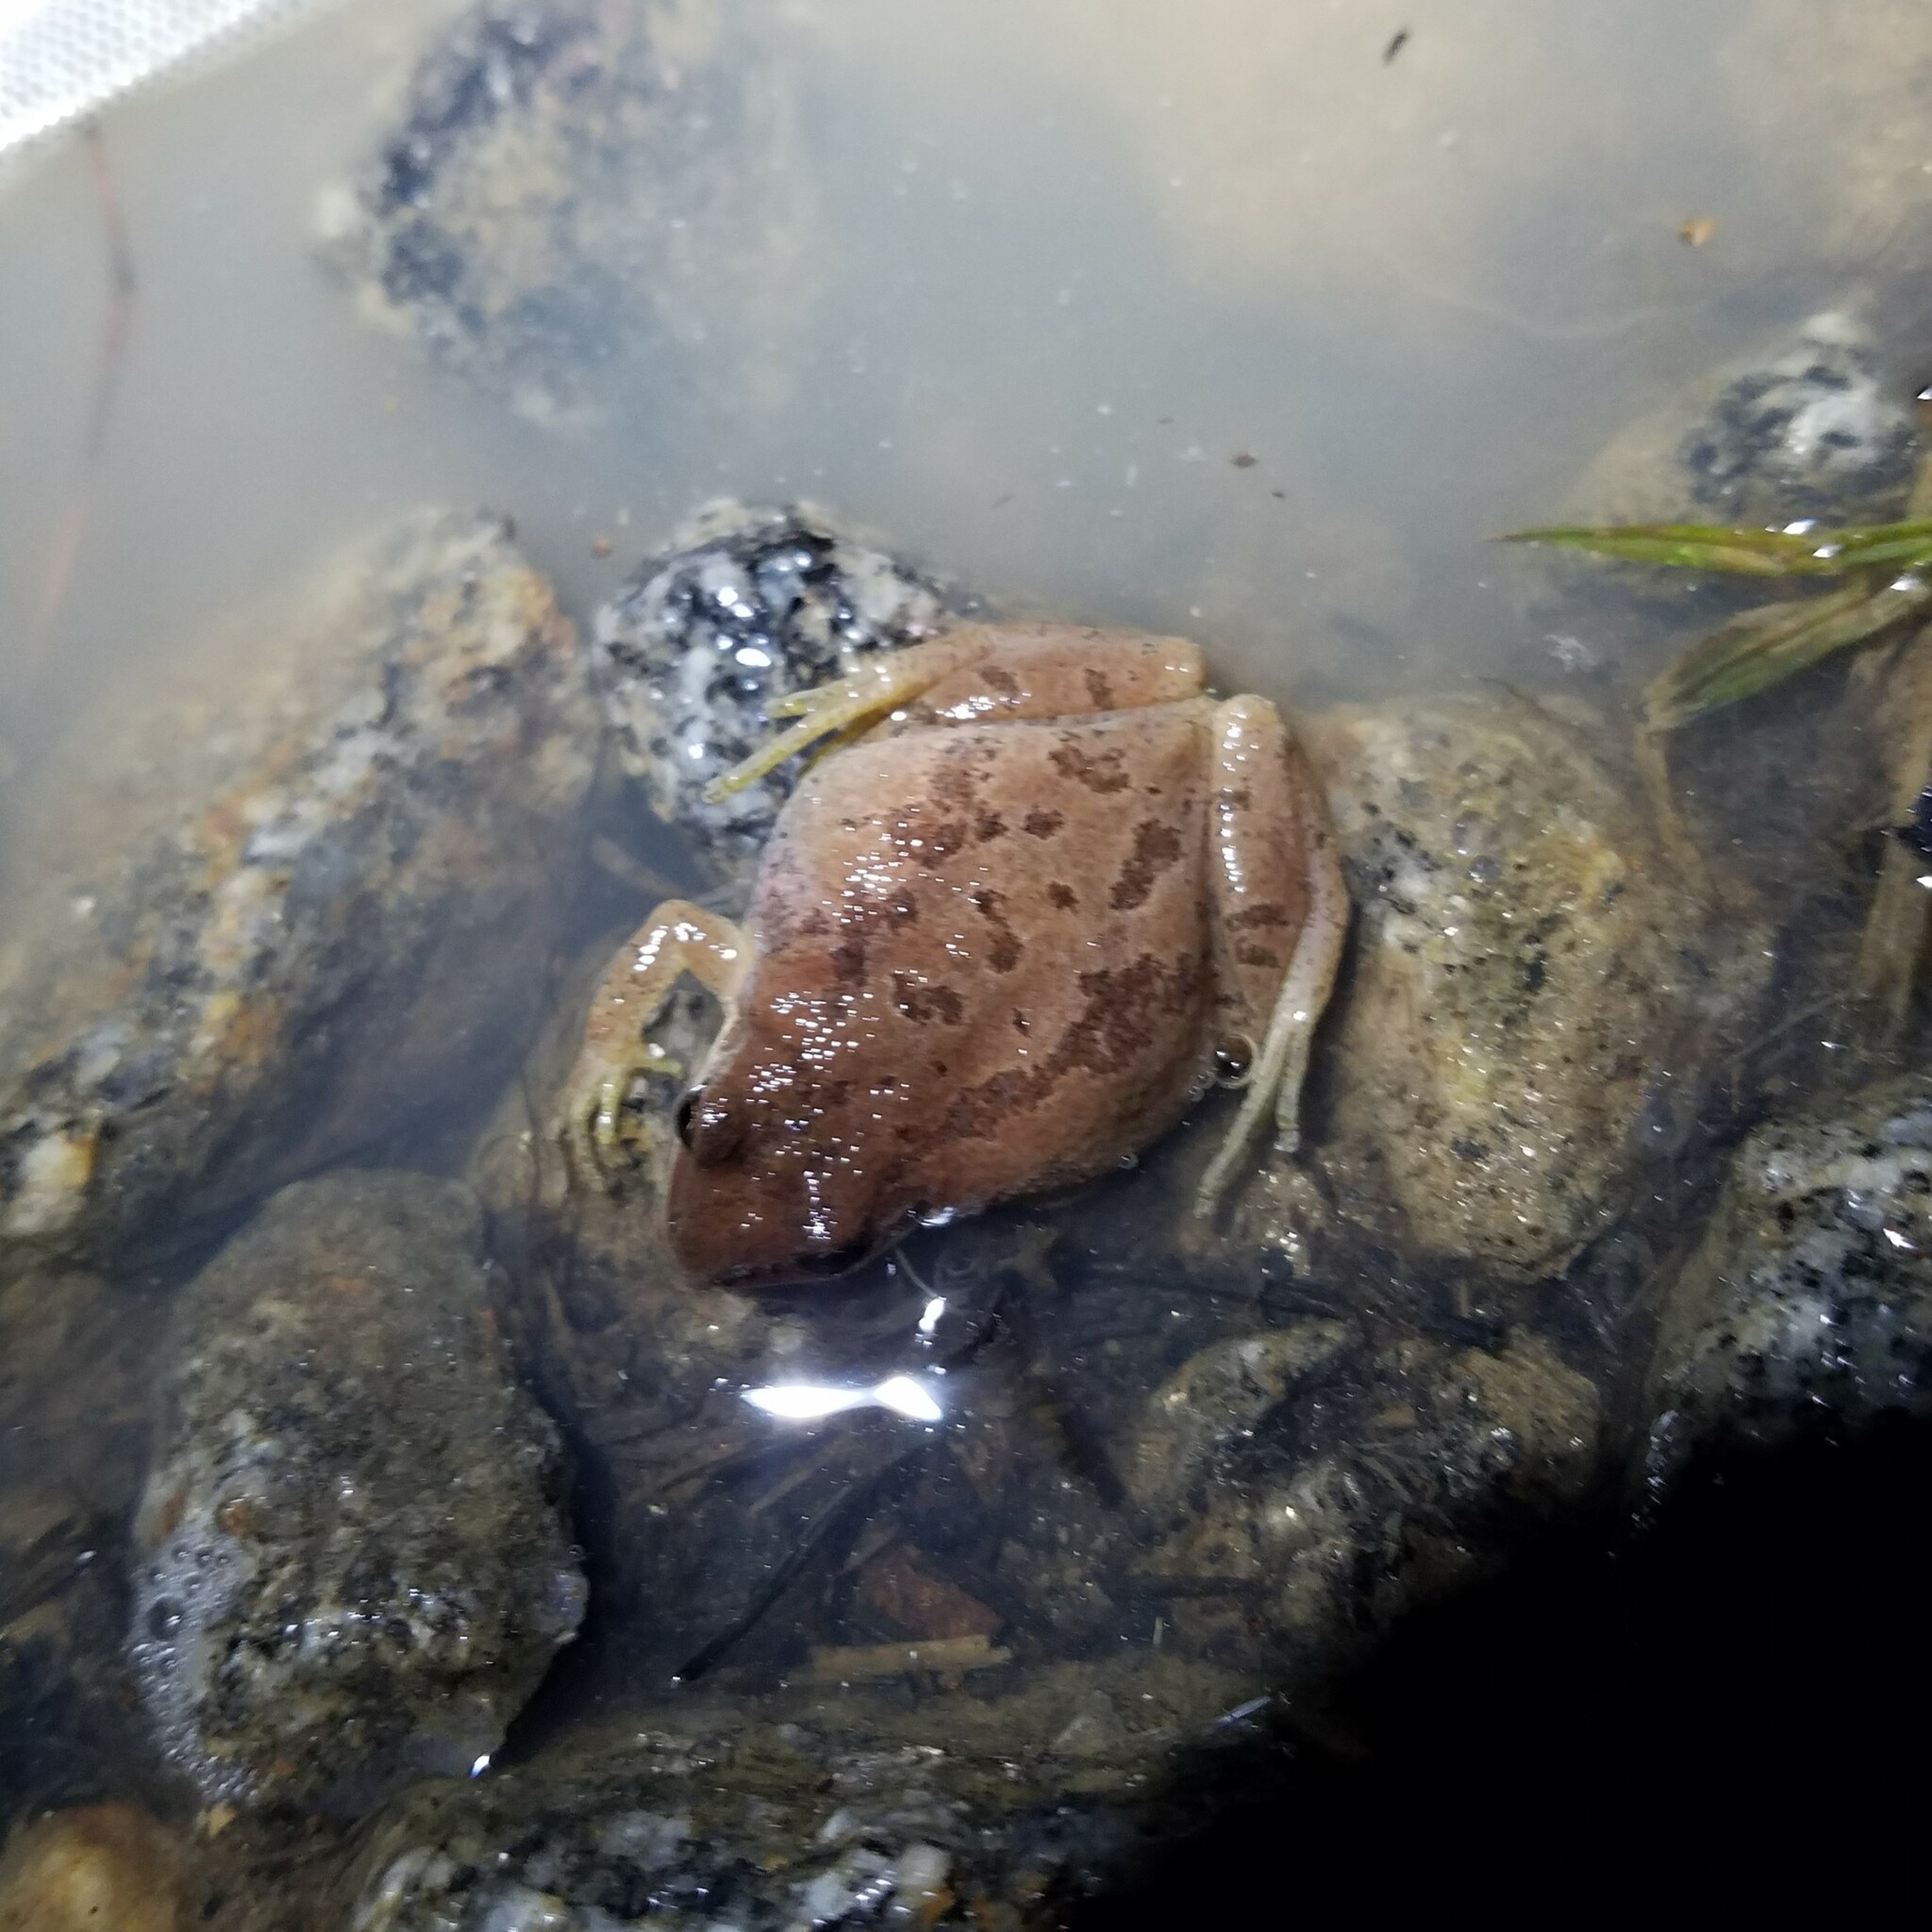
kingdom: Animalia
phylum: Chordata
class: Amphibia
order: Anura
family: Hylidae
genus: Pseudacris
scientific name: Pseudacris feriarum
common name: Upland chorus frog
